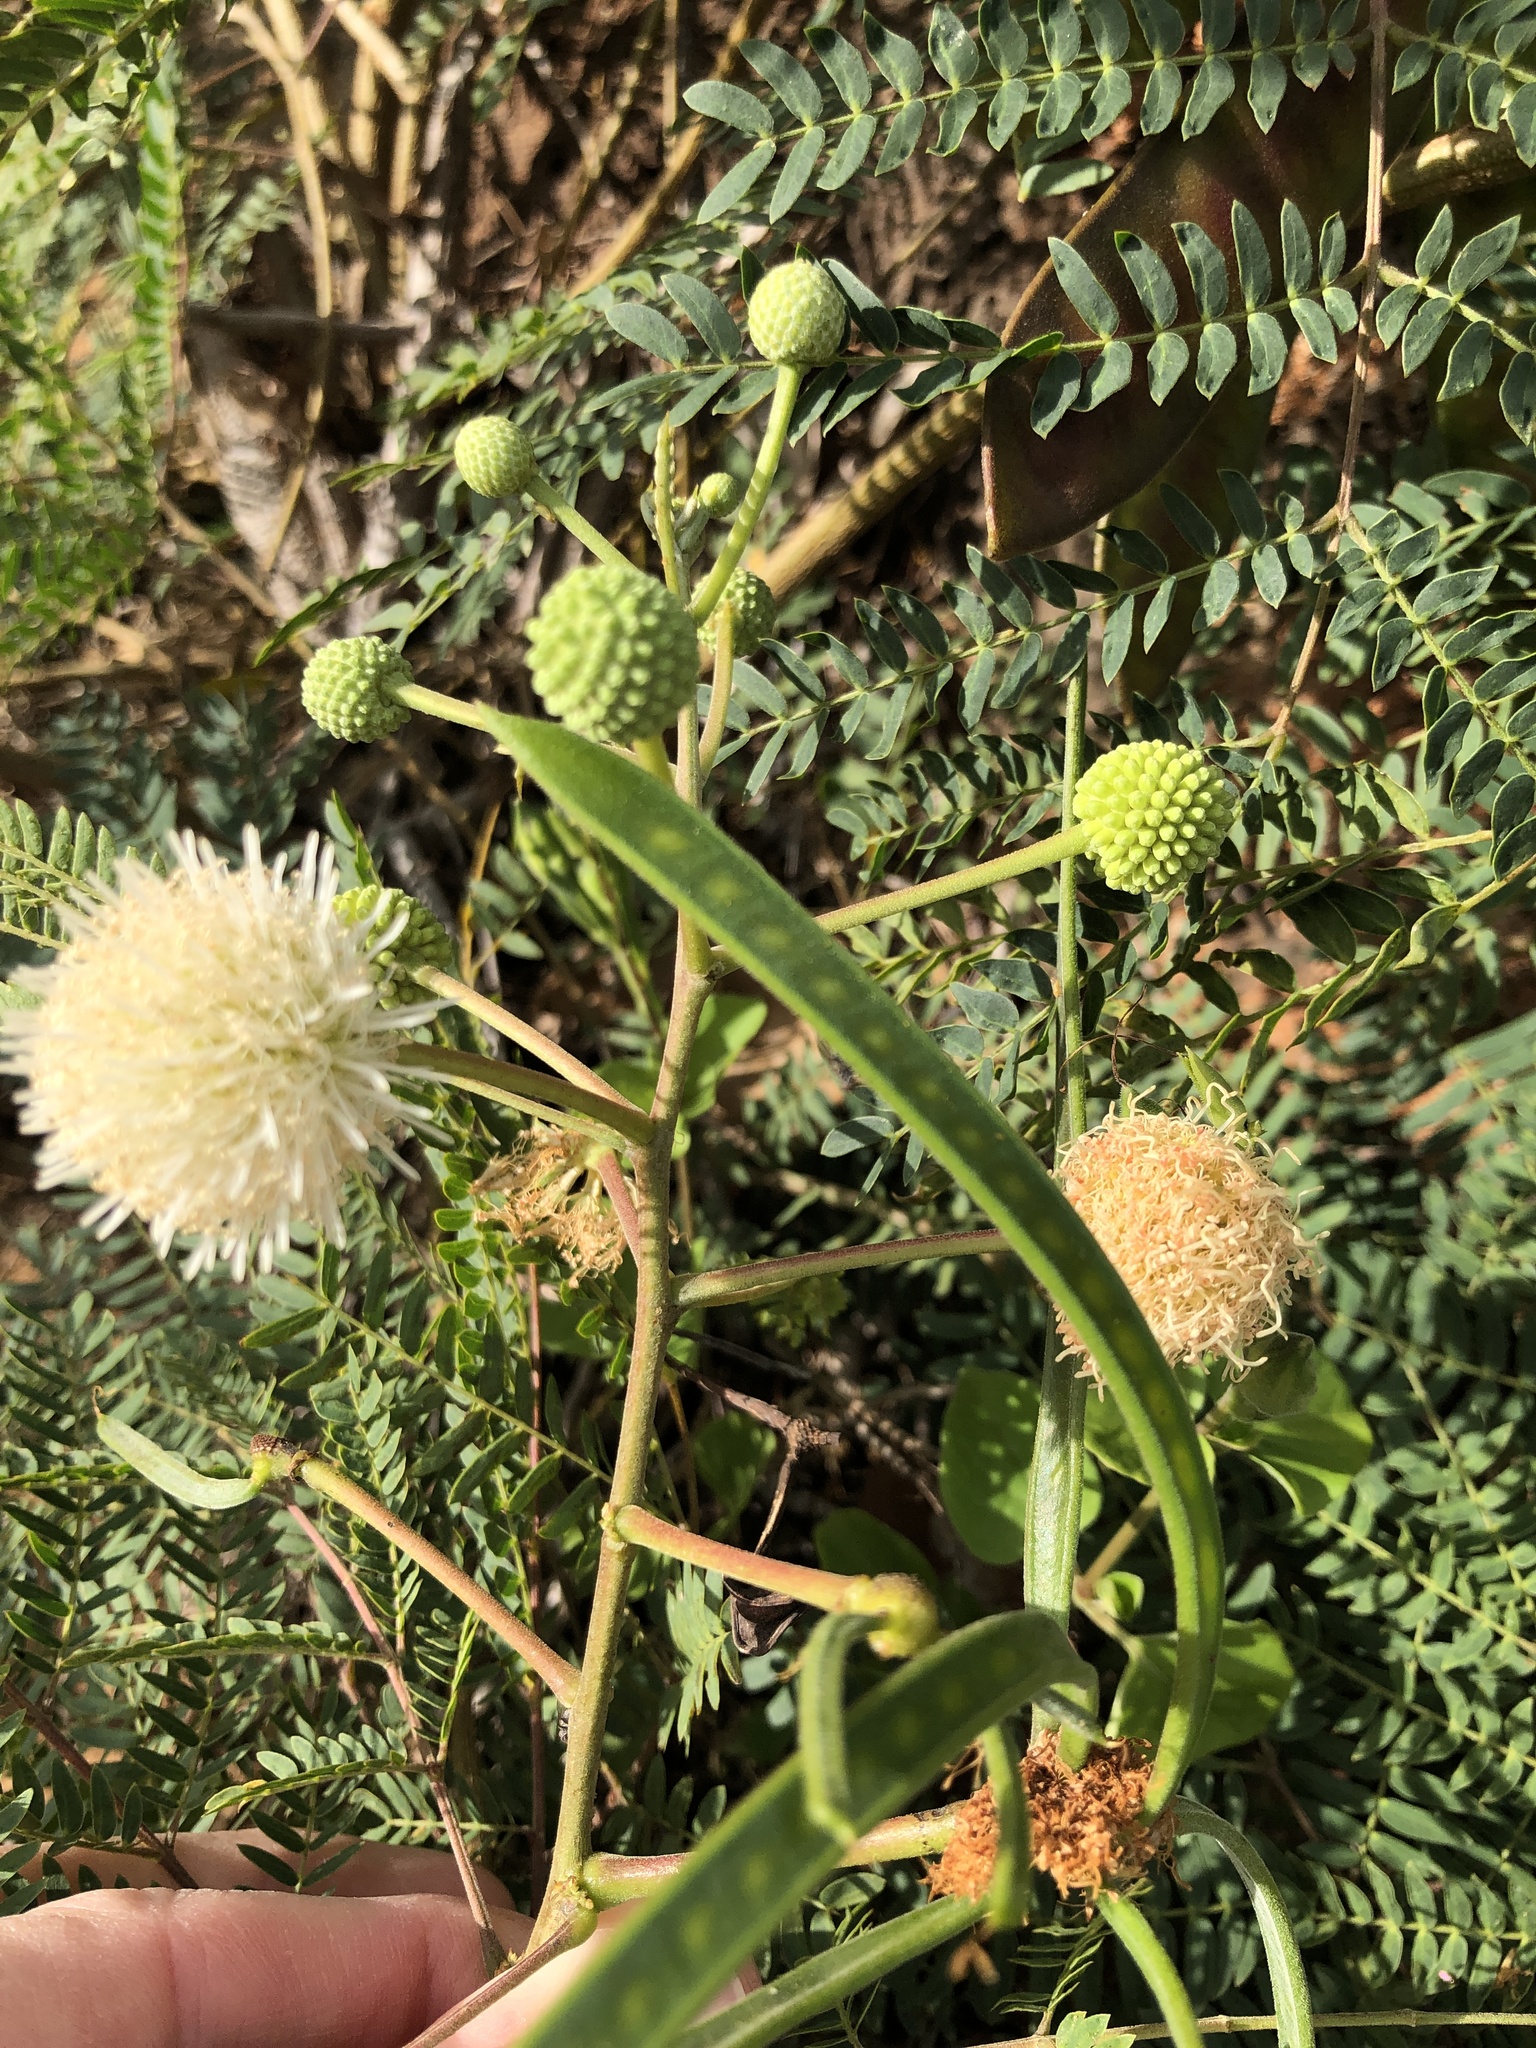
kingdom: Plantae
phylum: Tracheophyta
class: Magnoliopsida
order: Fabales
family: Fabaceae
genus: Leucaena
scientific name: Leucaena leucocephala
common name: White leadtree
